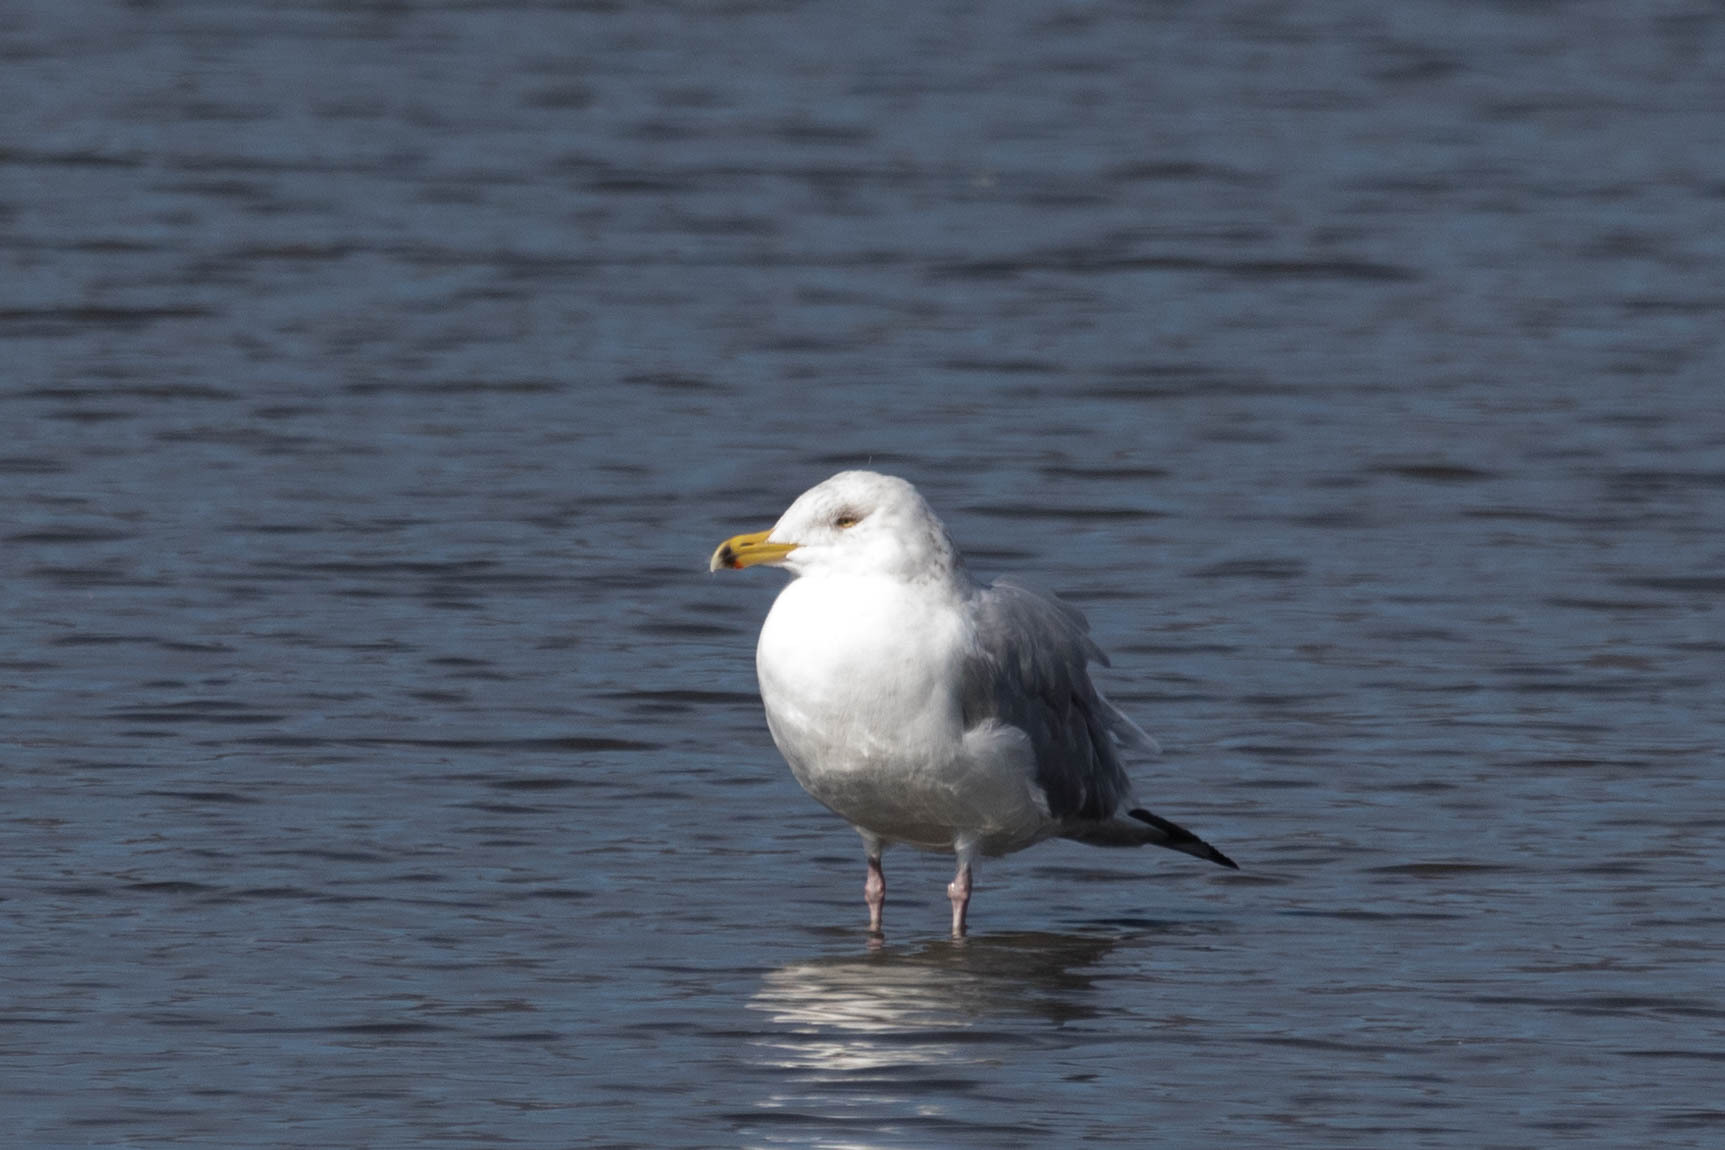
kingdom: Animalia
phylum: Chordata
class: Aves
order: Charadriiformes
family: Laridae
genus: Larus
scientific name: Larus smithsonianus
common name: American herring gull
